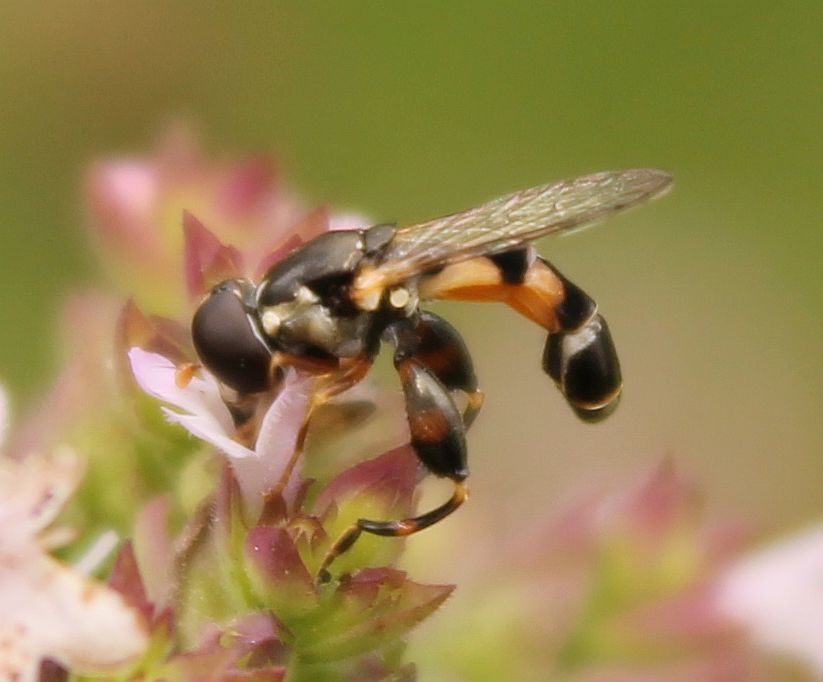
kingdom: Animalia
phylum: Arthropoda
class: Insecta
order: Diptera
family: Syrphidae
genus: Syritta
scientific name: Syritta pipiens
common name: Hover fly
